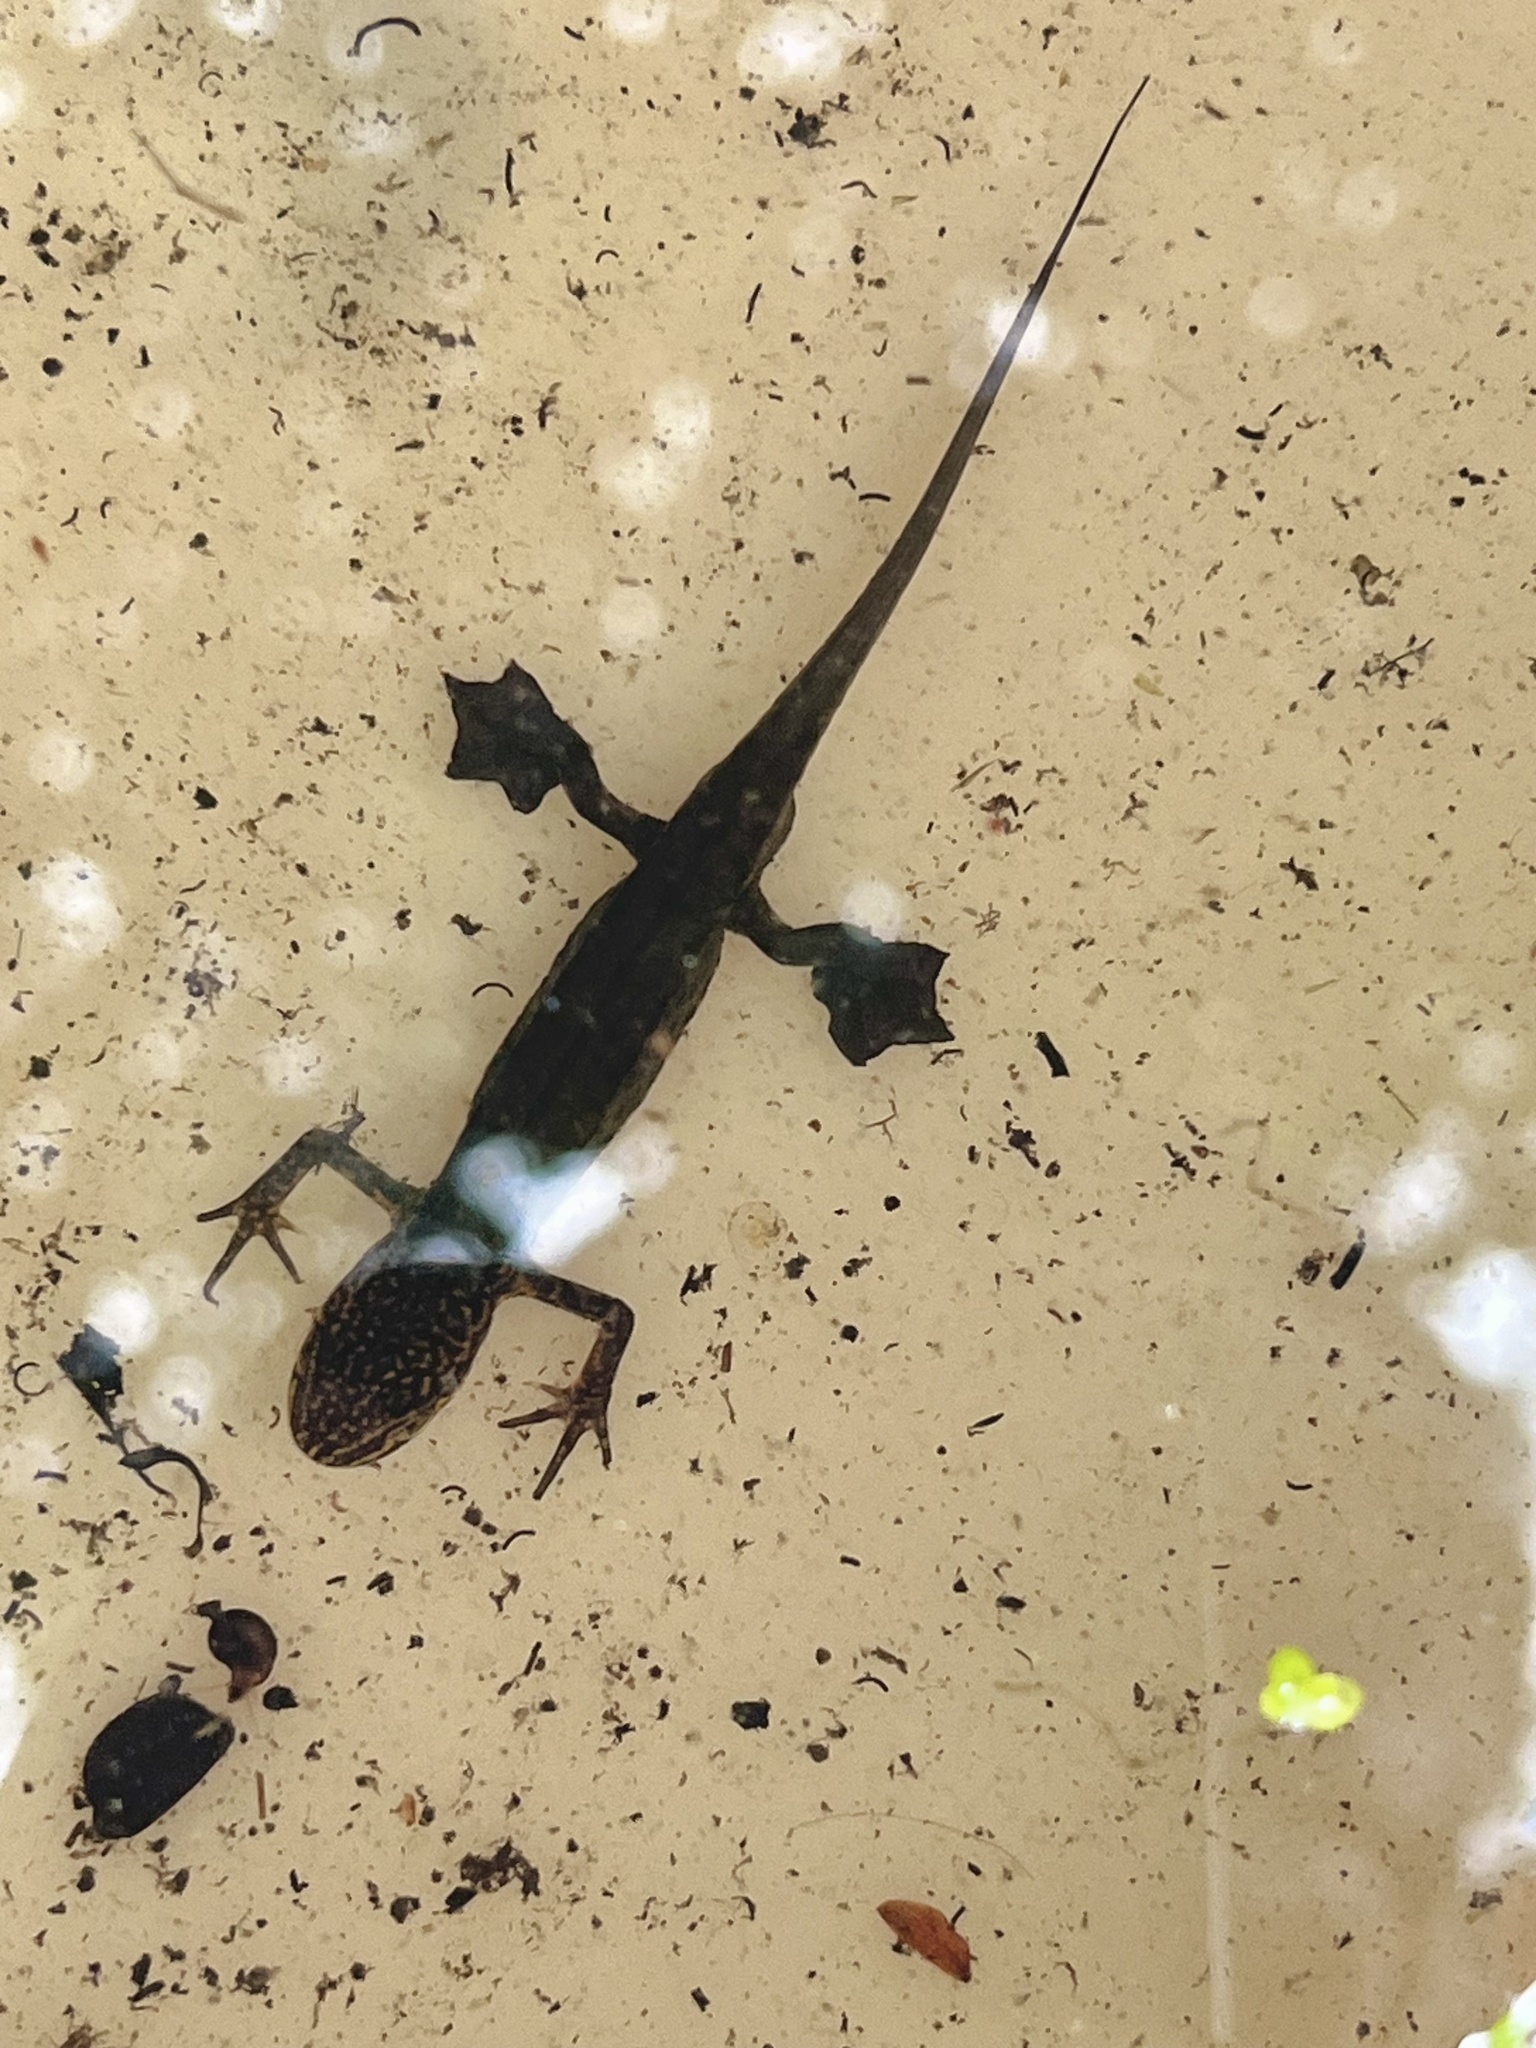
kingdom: Animalia
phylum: Chordata
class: Amphibia
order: Caudata
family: Salamandridae
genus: Lissotriton
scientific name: Lissotriton helveticus
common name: Palmate newt
